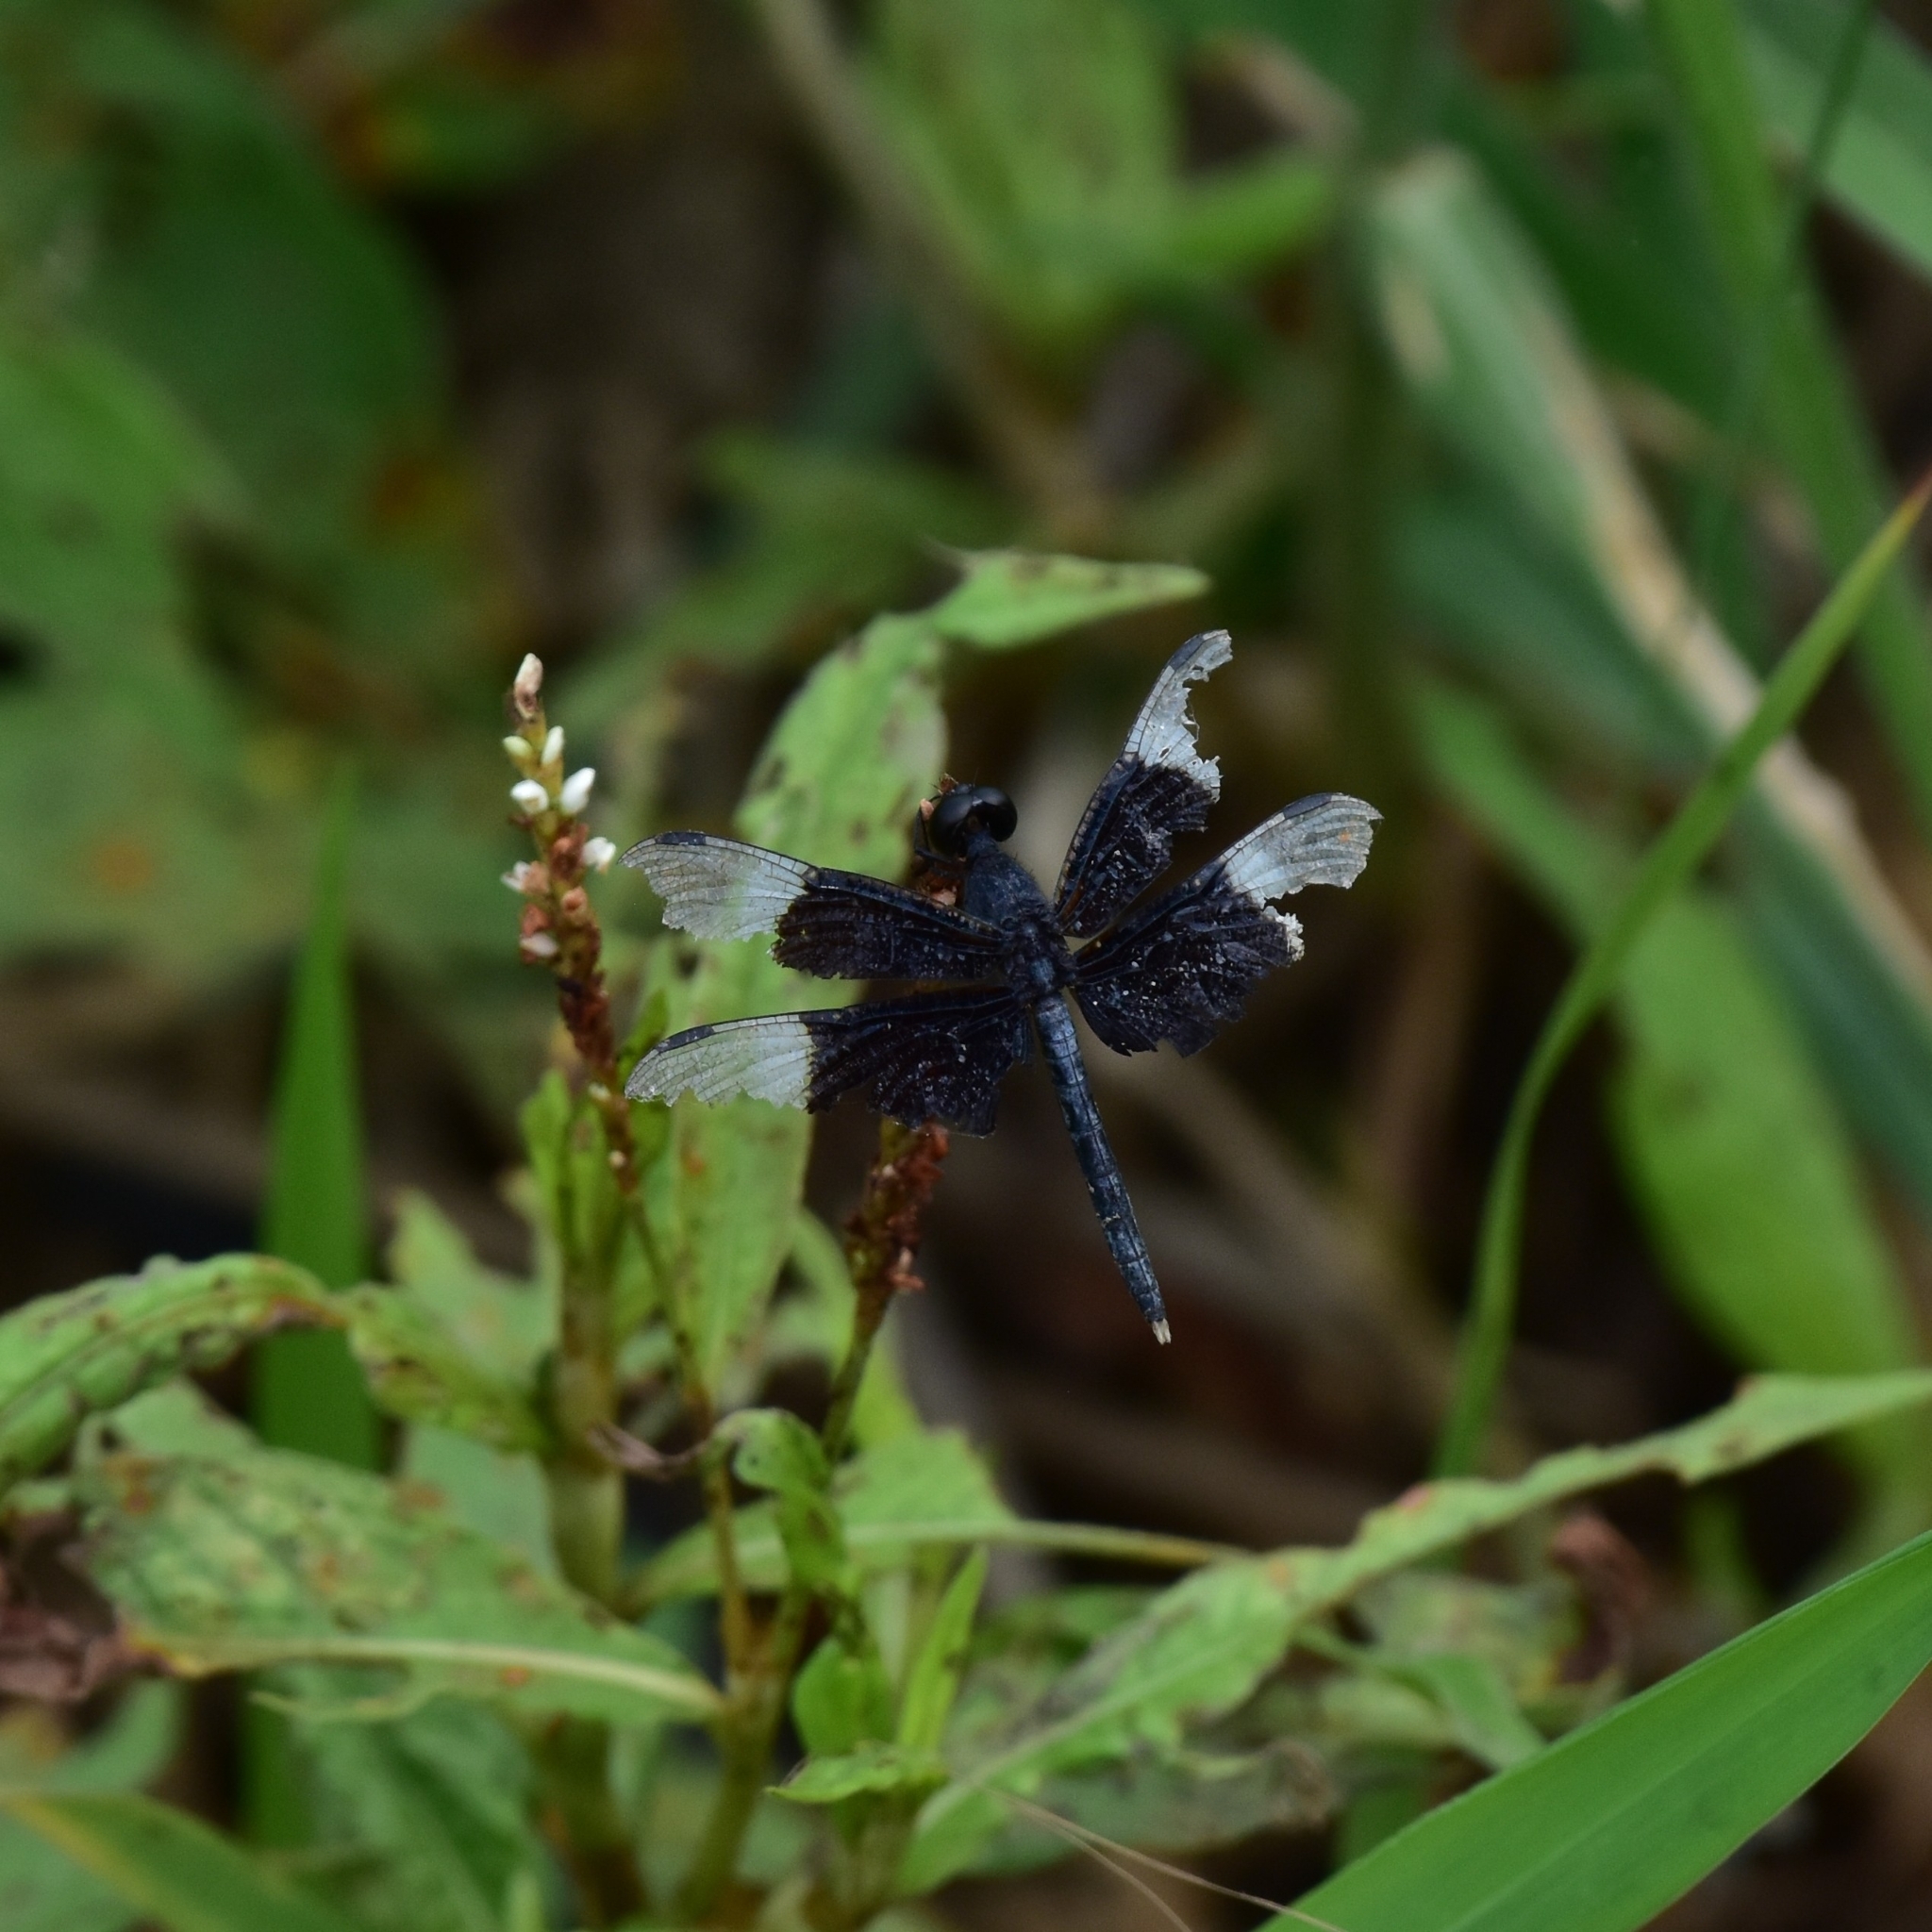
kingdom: Animalia
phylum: Arthropoda
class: Insecta
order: Odonata
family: Libellulidae
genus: Neurothemis
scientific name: Neurothemis tullia
